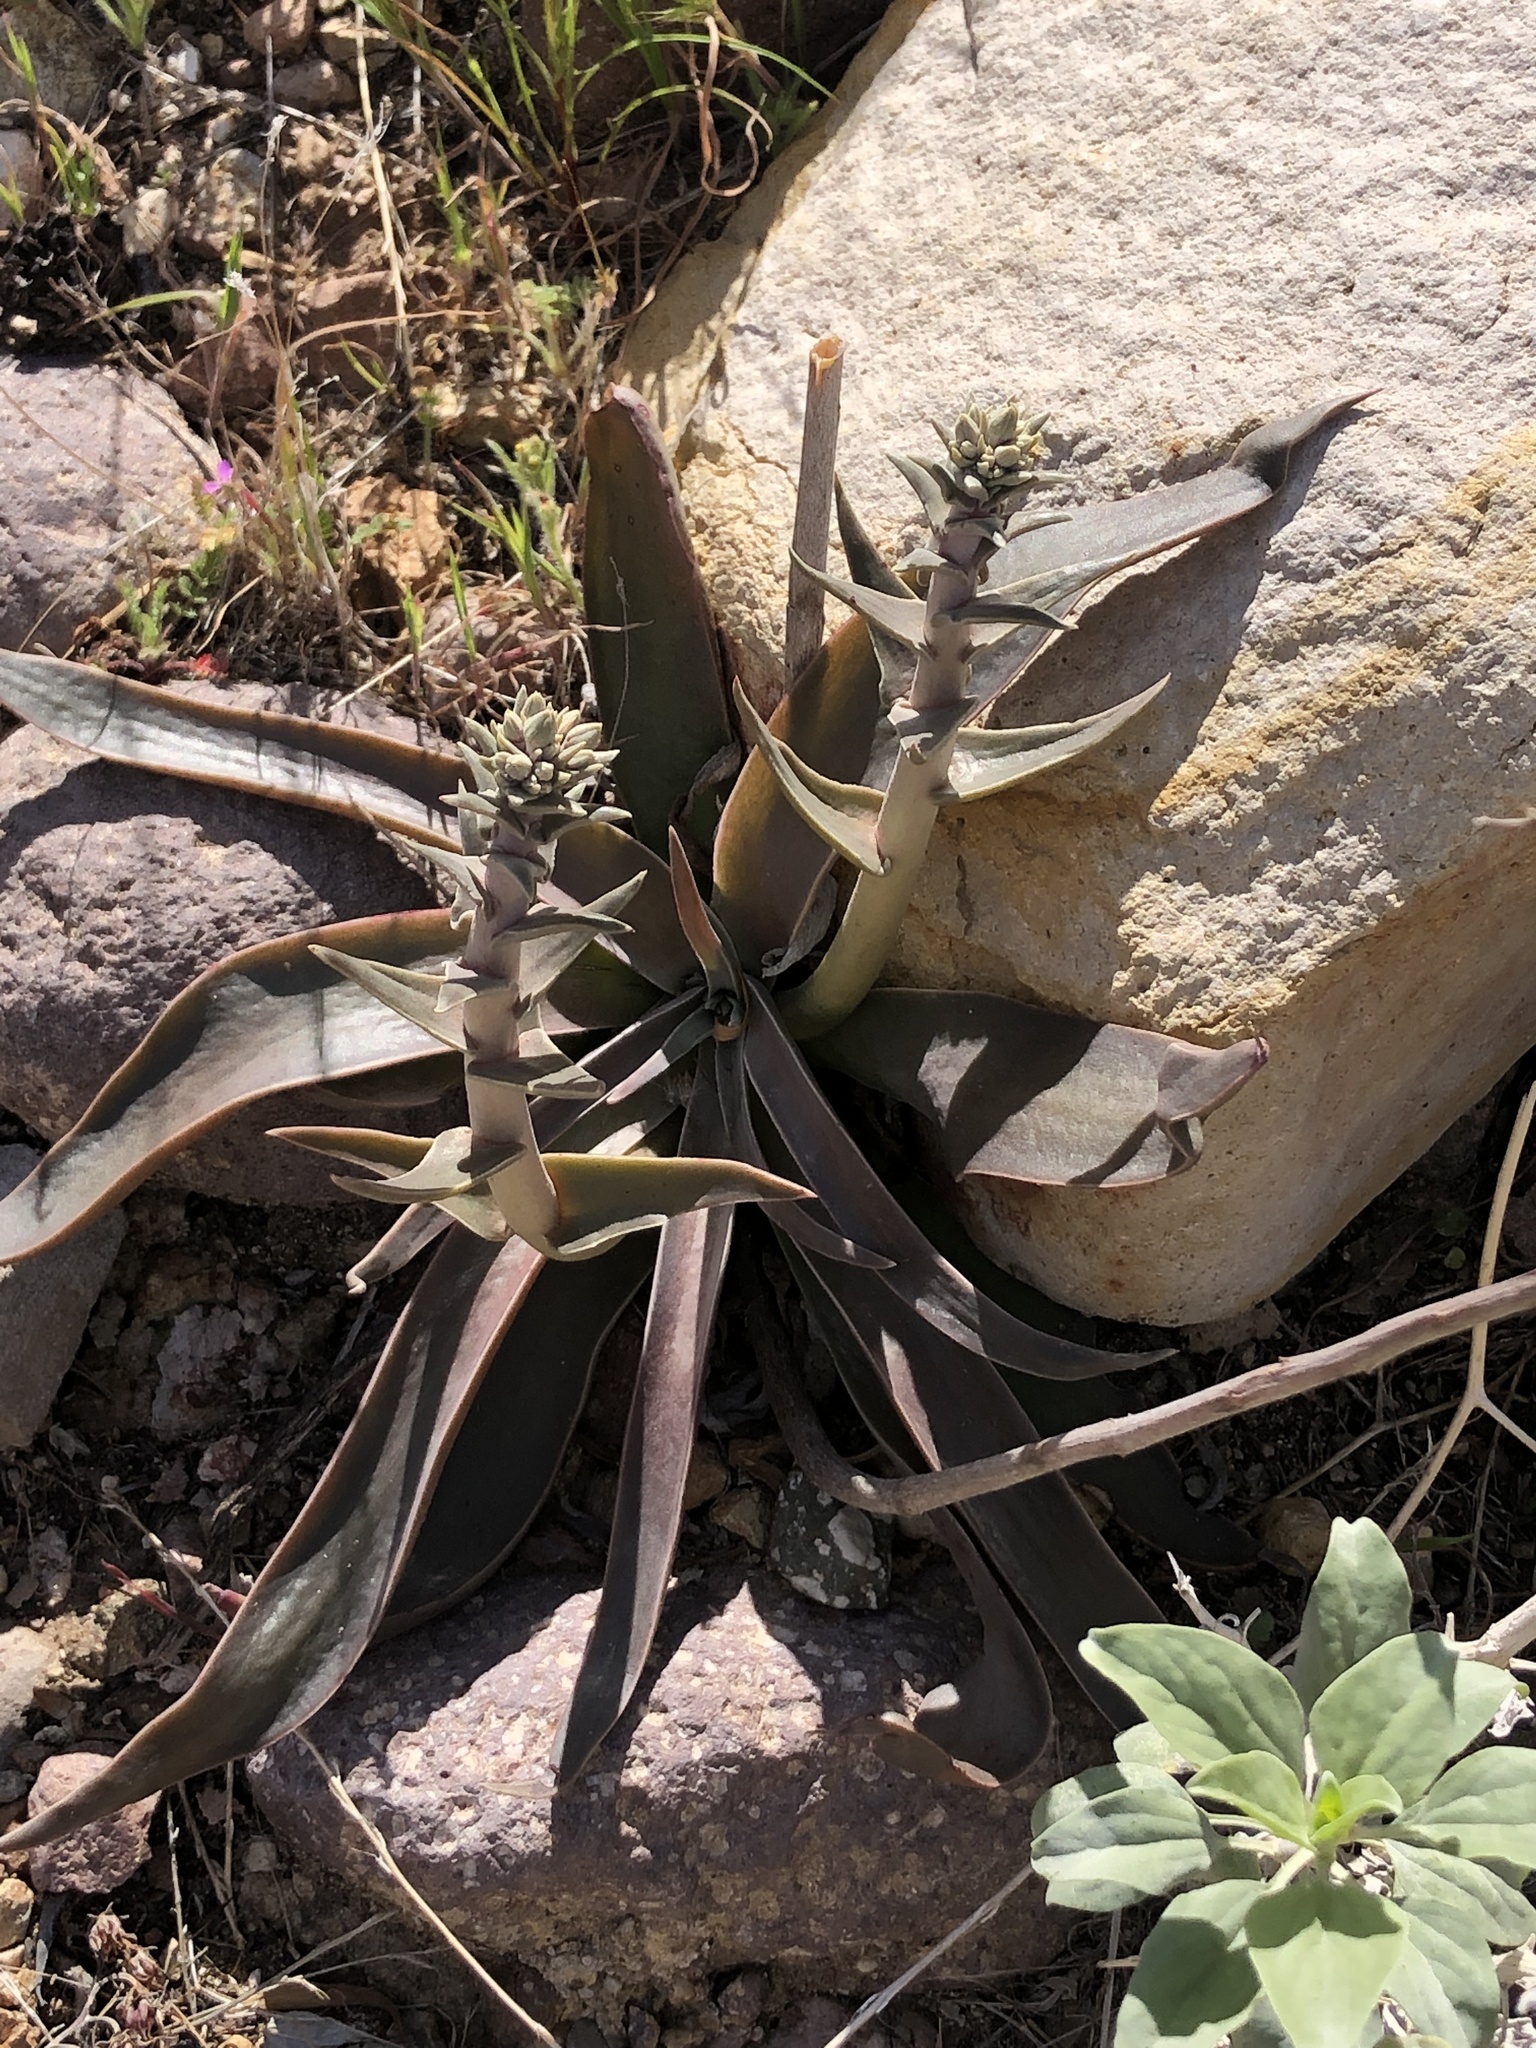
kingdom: Plantae
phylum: Tracheophyta
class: Magnoliopsida
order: Saxifragales
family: Crassulaceae
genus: Dudleya
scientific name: Dudleya lanceolata
